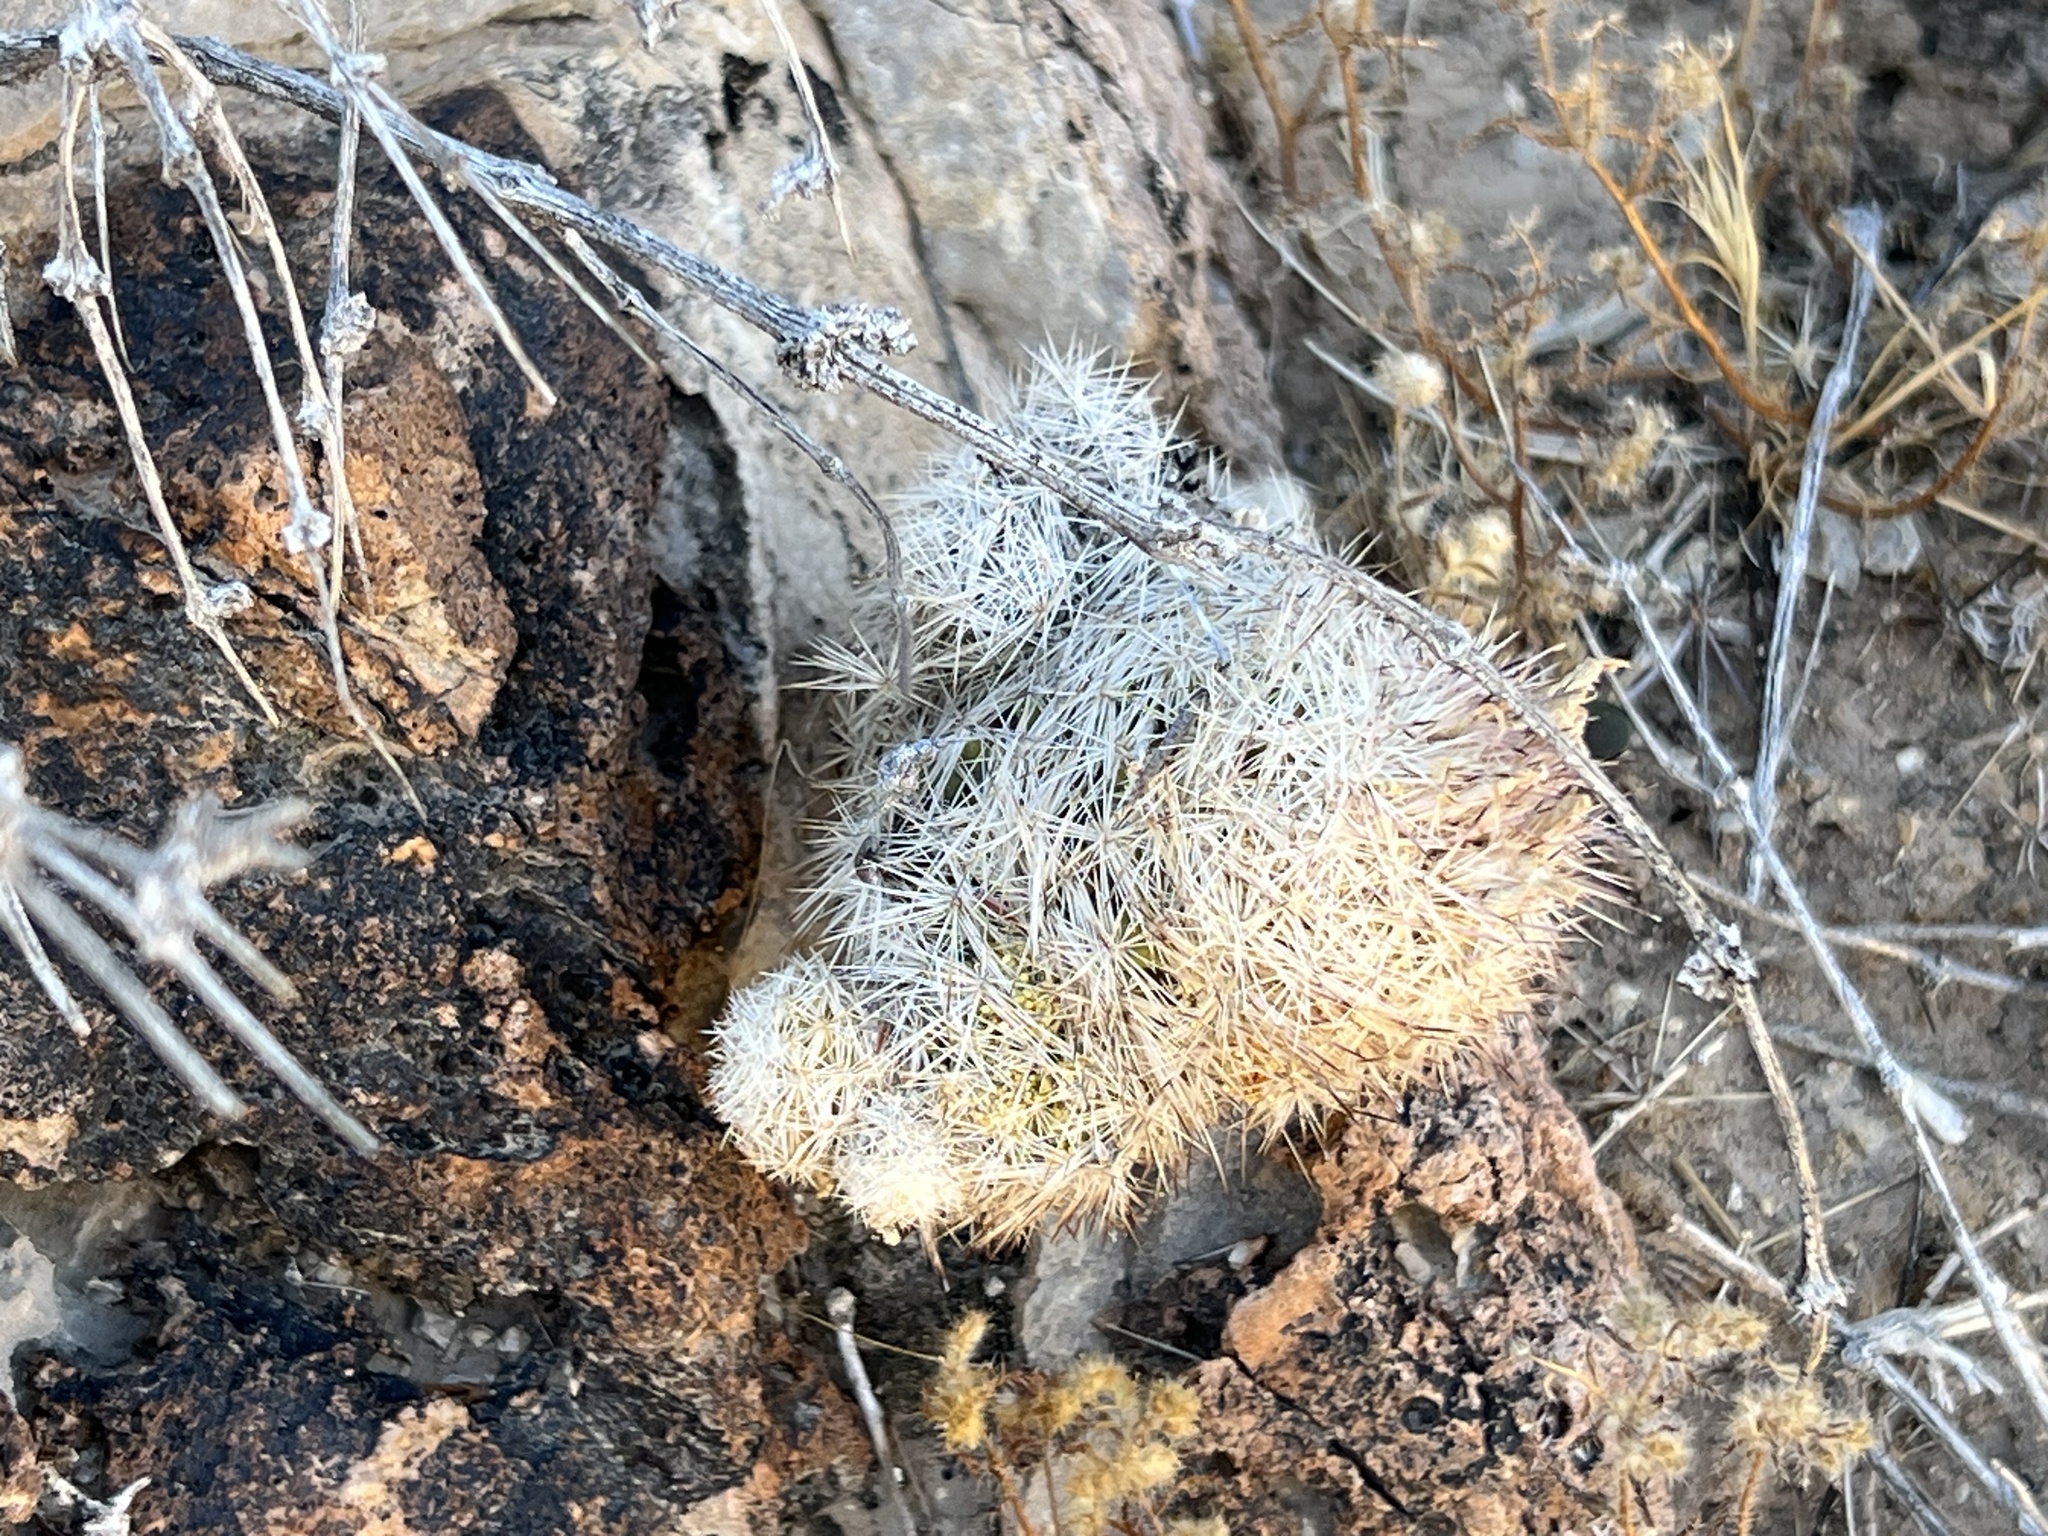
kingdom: Plantae
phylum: Tracheophyta
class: Magnoliopsida
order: Caryophyllales
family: Cactaceae
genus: Pelecyphora
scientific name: Pelecyphora dasyacantha
